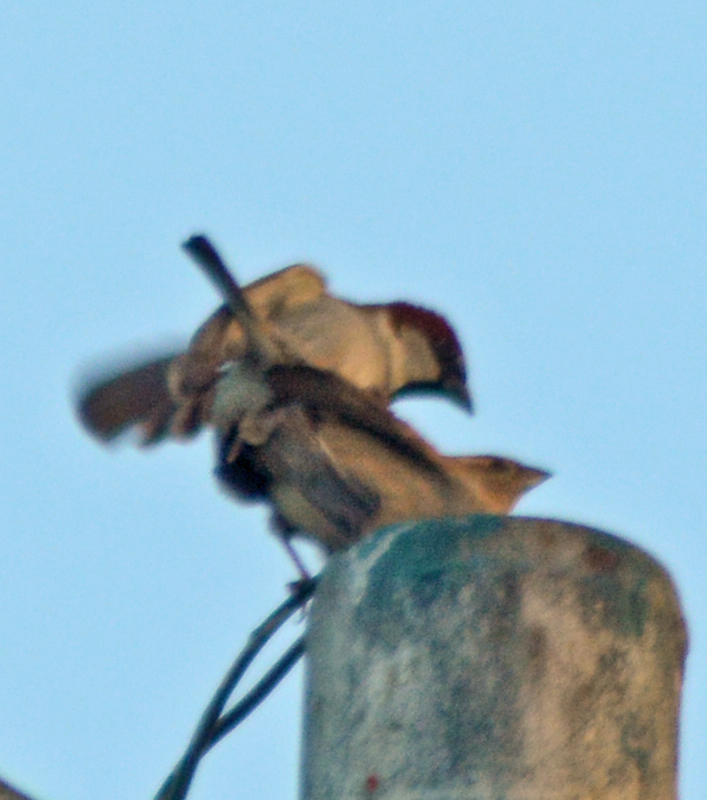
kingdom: Animalia
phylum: Chordata
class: Aves
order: Passeriformes
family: Passeridae
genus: Passer
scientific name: Passer domesticus
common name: House sparrow
